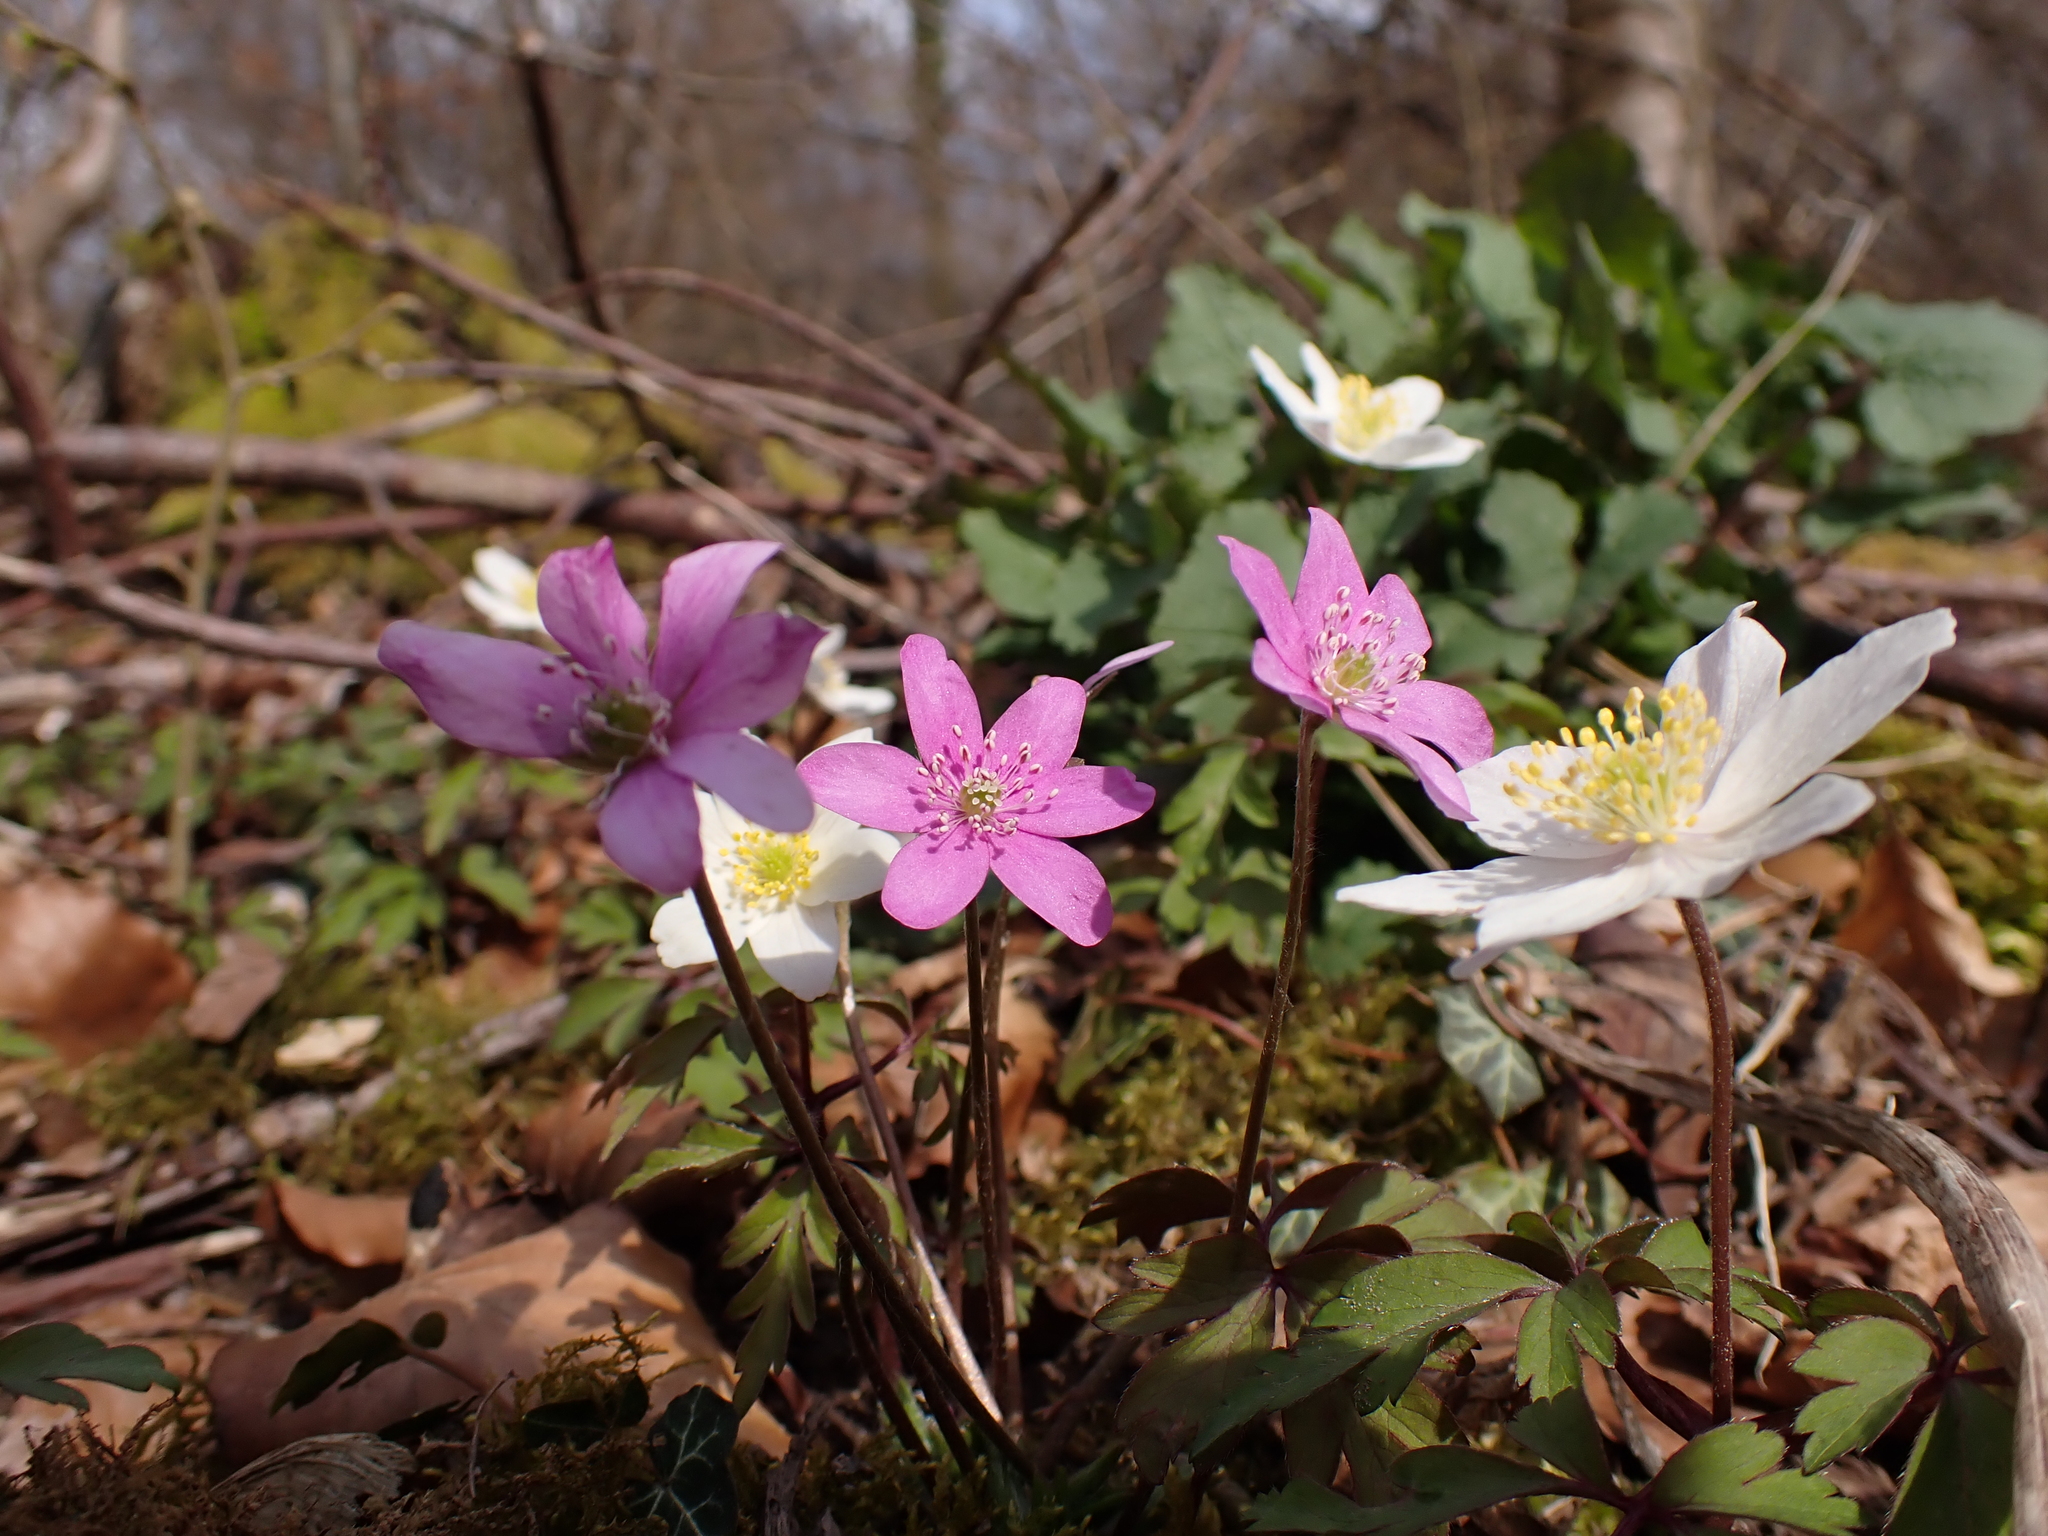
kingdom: Plantae
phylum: Tracheophyta
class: Magnoliopsida
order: Ranunculales
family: Ranunculaceae
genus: Hepatica
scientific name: Hepatica nobilis
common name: Liverleaf
